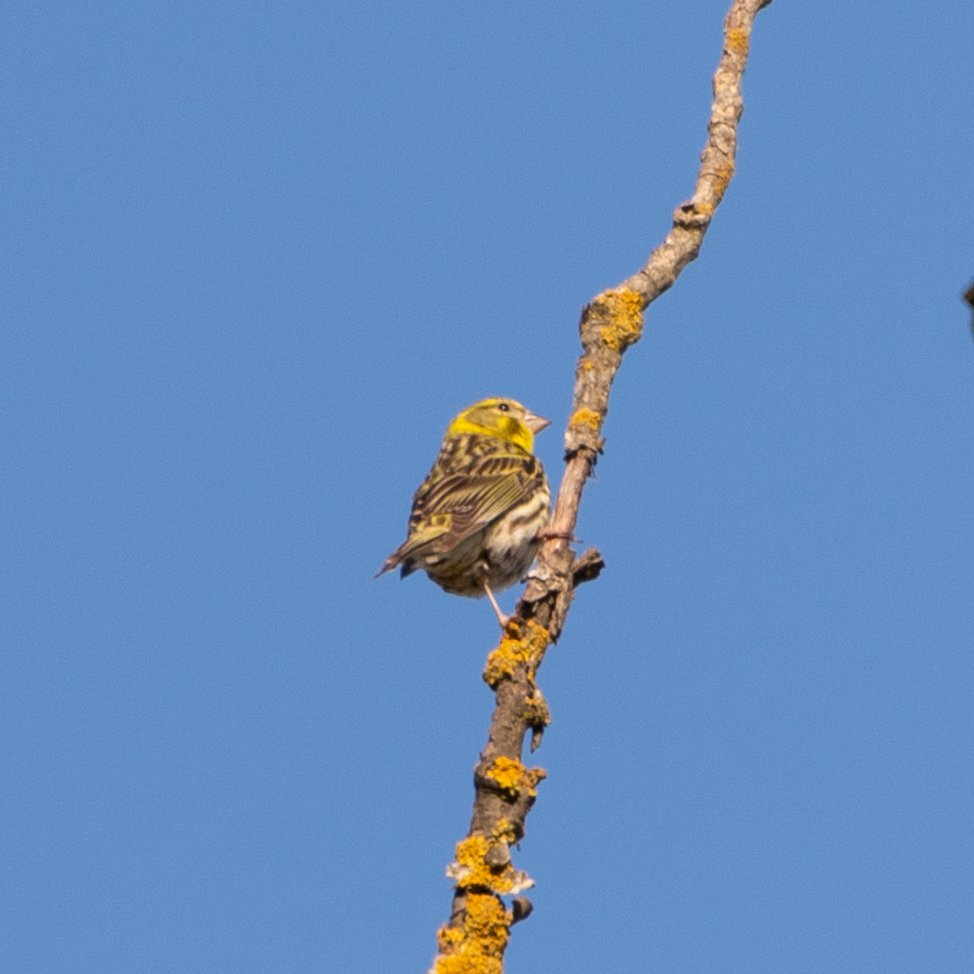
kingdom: Animalia
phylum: Chordata
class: Aves
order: Passeriformes
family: Fringillidae
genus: Serinus
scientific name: Serinus serinus
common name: European serin
